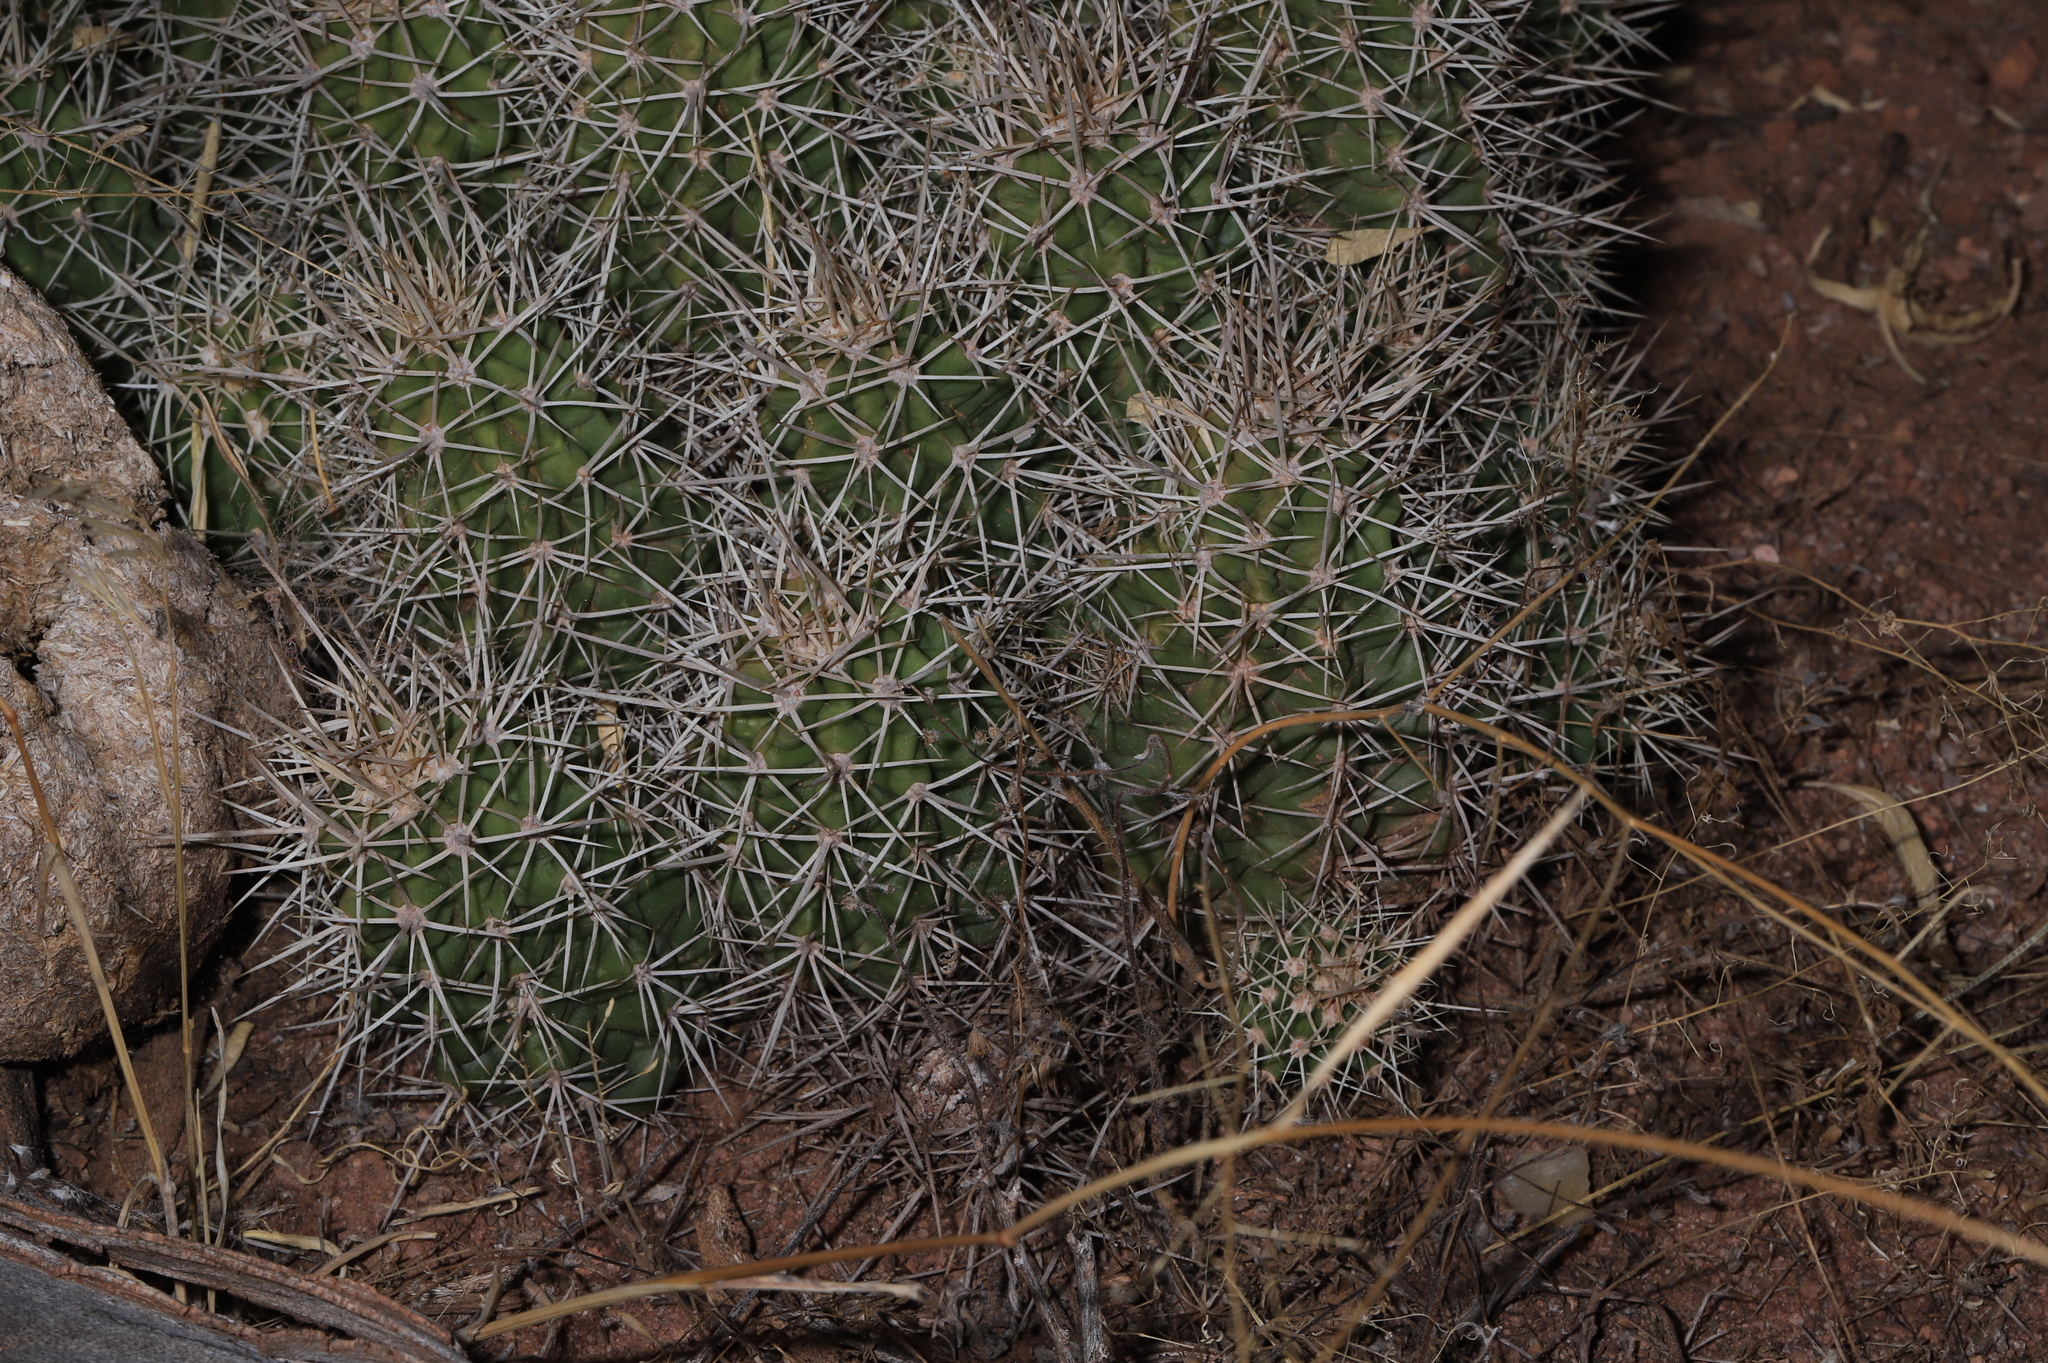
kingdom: Plantae
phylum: Tracheophyta
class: Magnoliopsida
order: Caryophyllales
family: Cactaceae
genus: Echinocereus
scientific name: Echinocereus triglochidiatus
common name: Claretcup hedgehog
